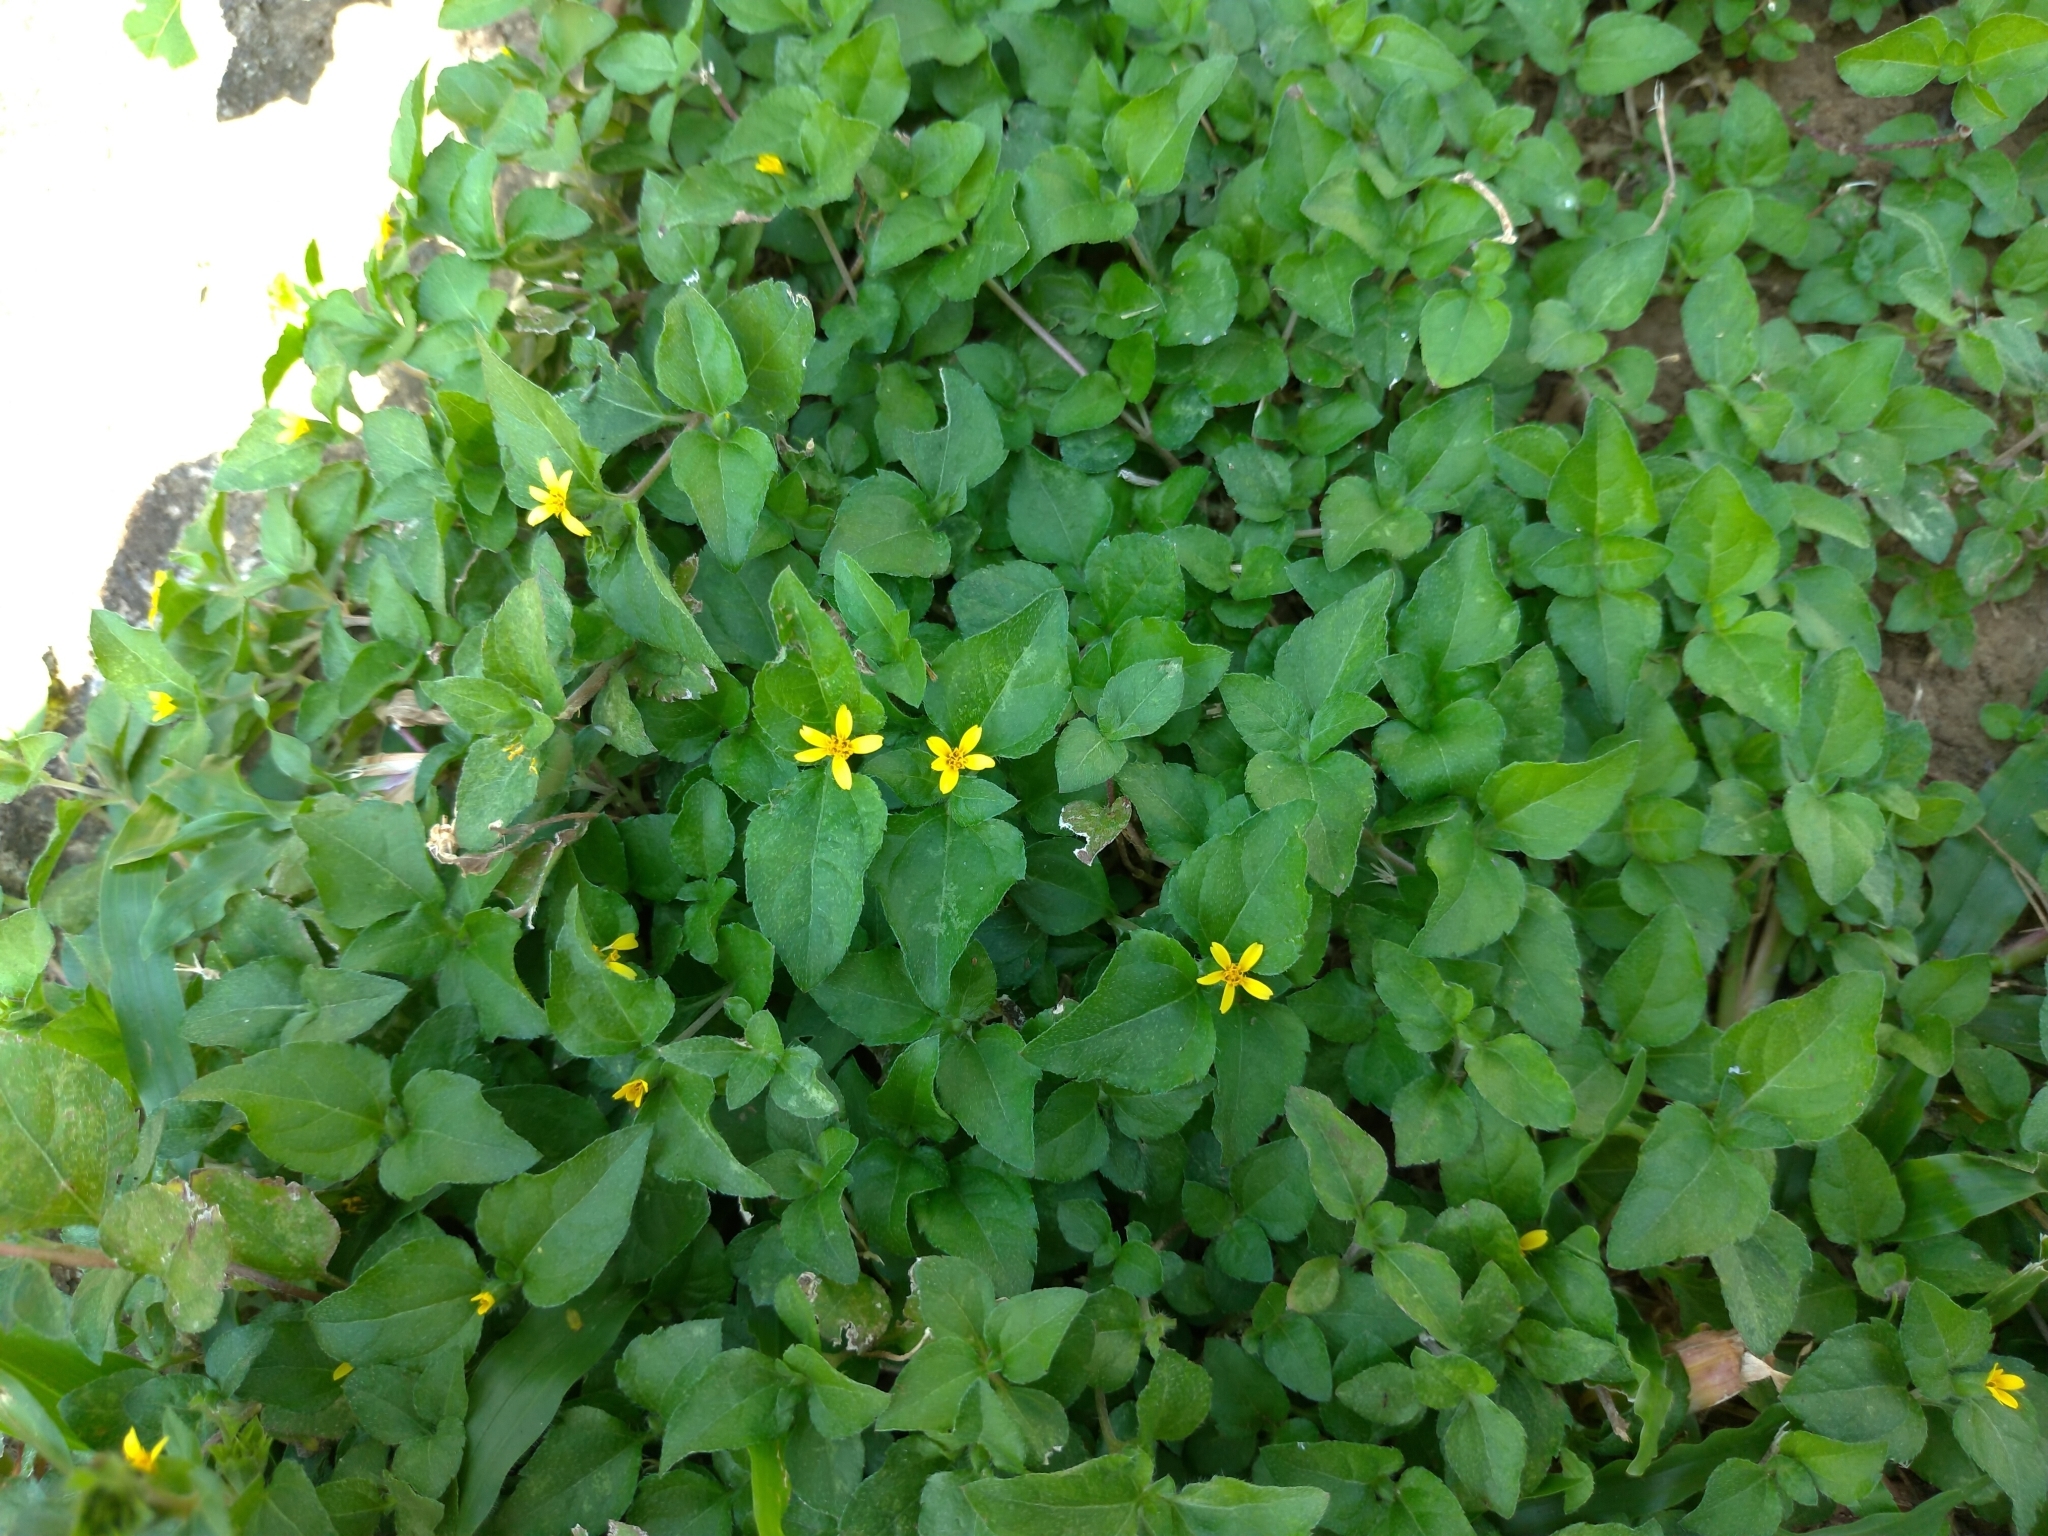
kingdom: Plantae
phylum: Tracheophyta
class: Magnoliopsida
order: Asterales
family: Asteraceae
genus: Calyptocarpus
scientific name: Calyptocarpus vialis
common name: Straggler daisy
